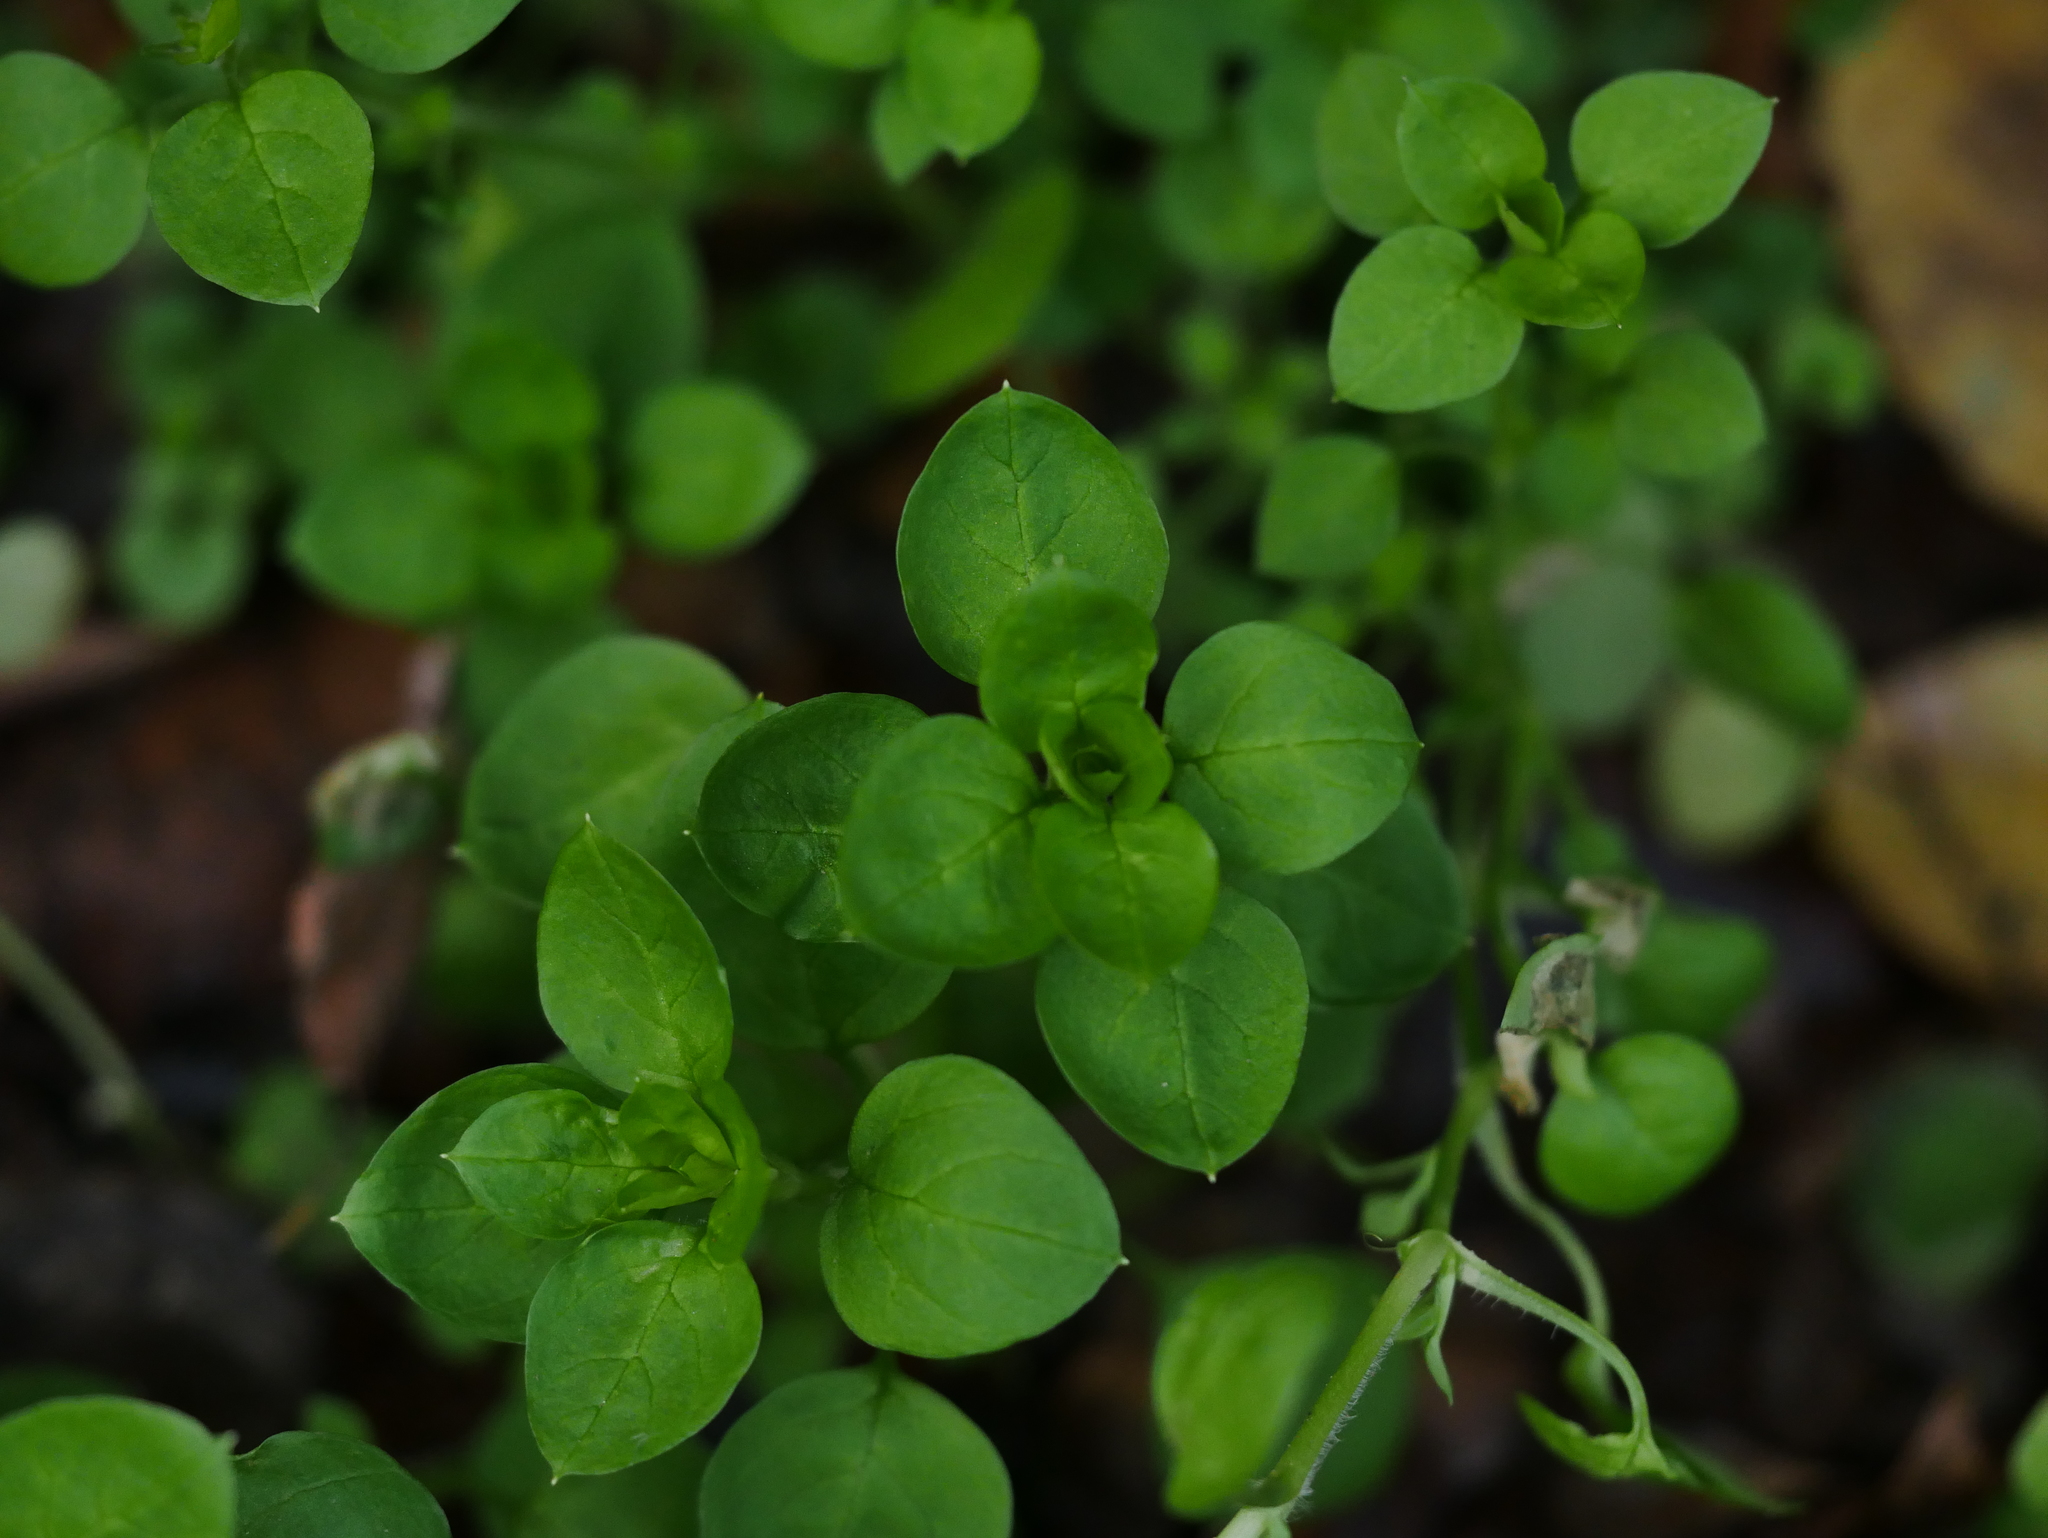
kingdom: Plantae
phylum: Tracheophyta
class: Magnoliopsida
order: Caryophyllales
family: Caryophyllaceae
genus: Stellaria
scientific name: Stellaria media
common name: Common chickweed
